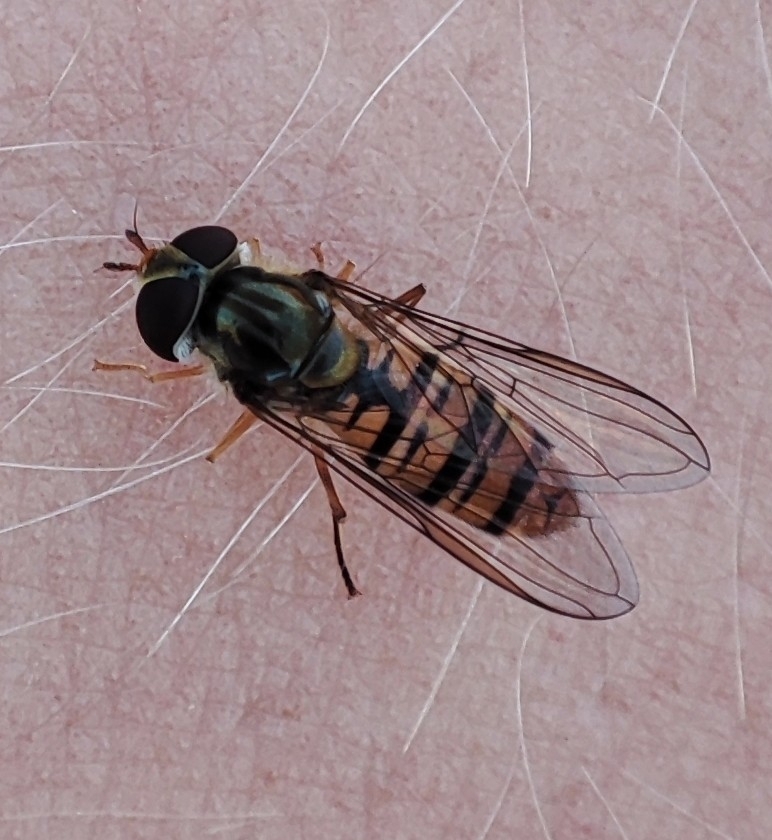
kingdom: Animalia
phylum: Arthropoda
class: Insecta
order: Diptera
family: Syrphidae
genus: Episyrphus
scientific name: Episyrphus balteatus
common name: Marmalade hoverfly
